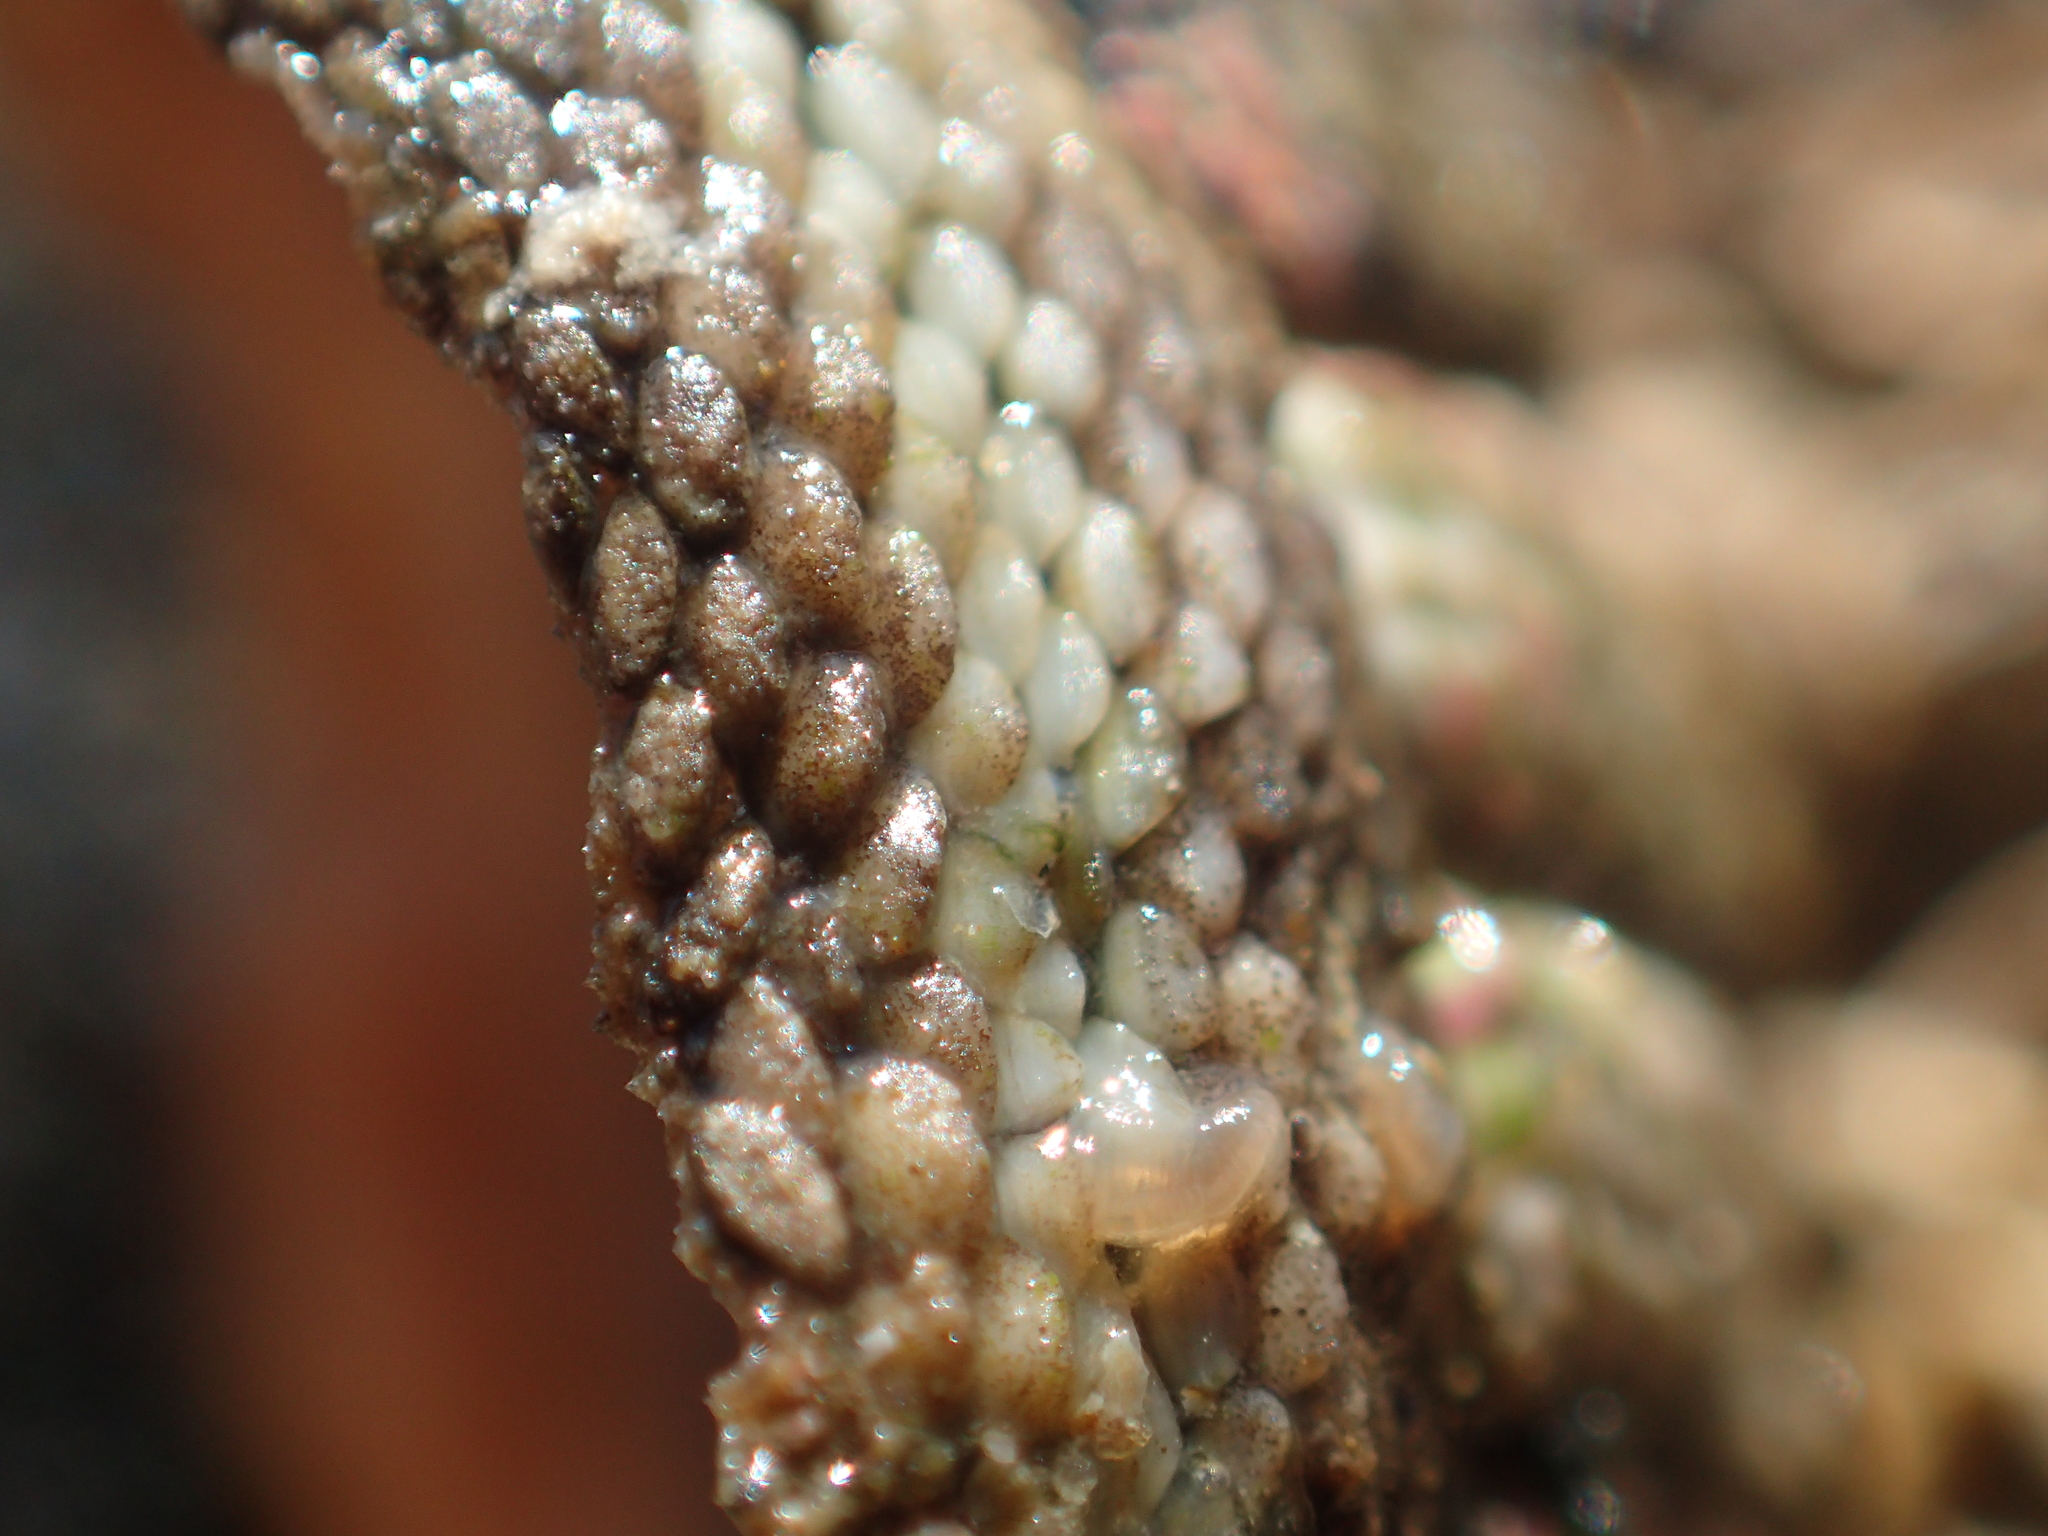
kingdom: Animalia
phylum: Mollusca
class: Polyplacophora
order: Chitonida
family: Chitonidae
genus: Sypharochiton
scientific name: Sypharochiton pelliserpentis
